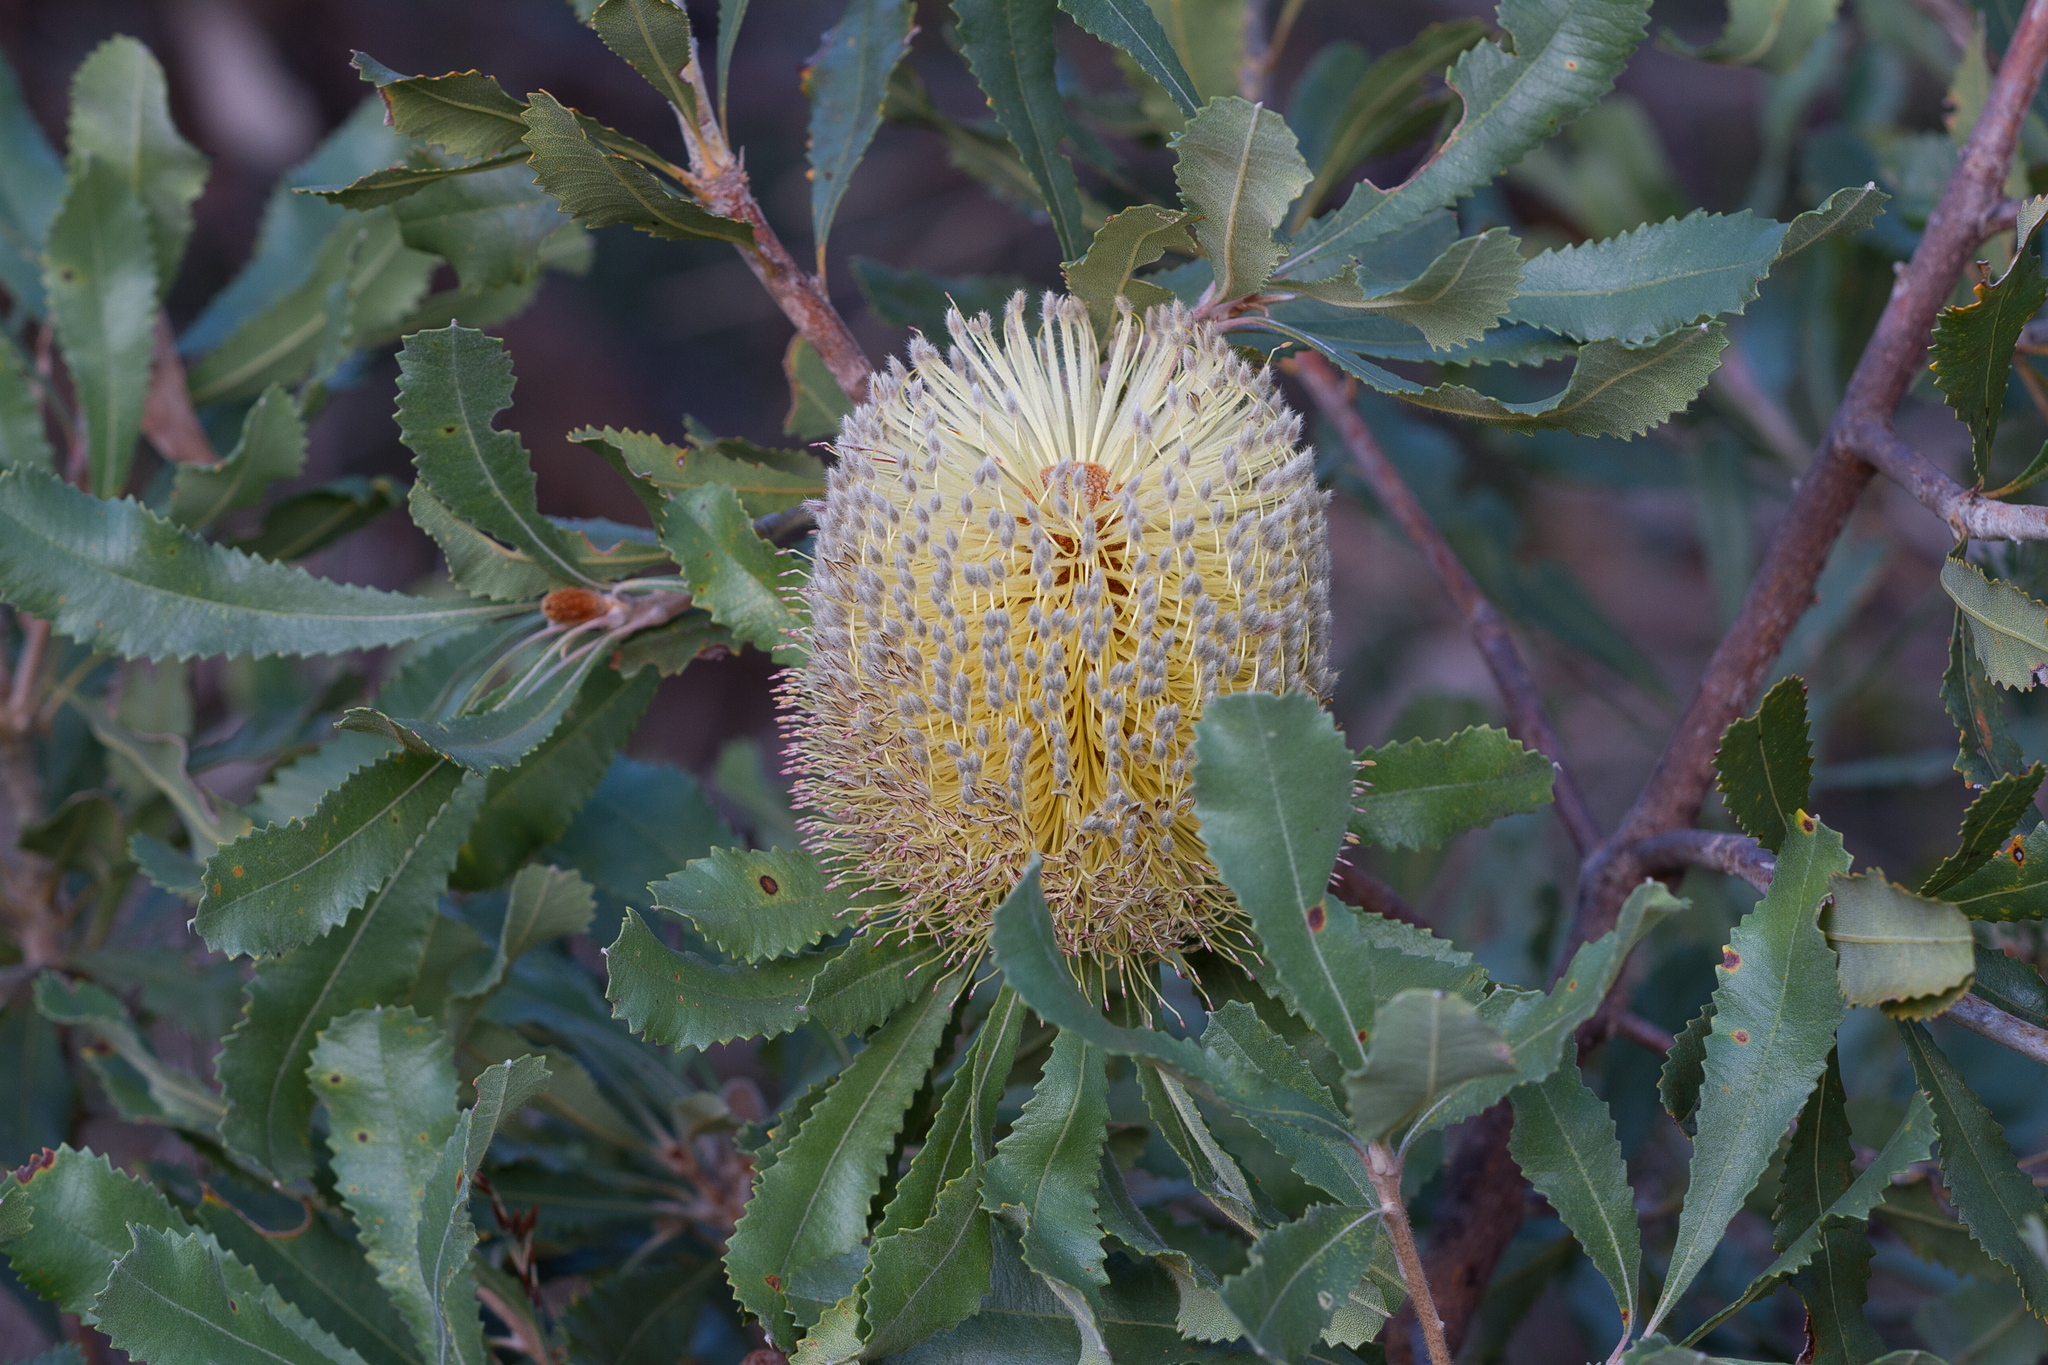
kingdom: Plantae
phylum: Tracheophyta
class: Magnoliopsida
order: Proteales
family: Proteaceae
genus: Banksia
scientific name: Banksia ornata
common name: Desert banksia
